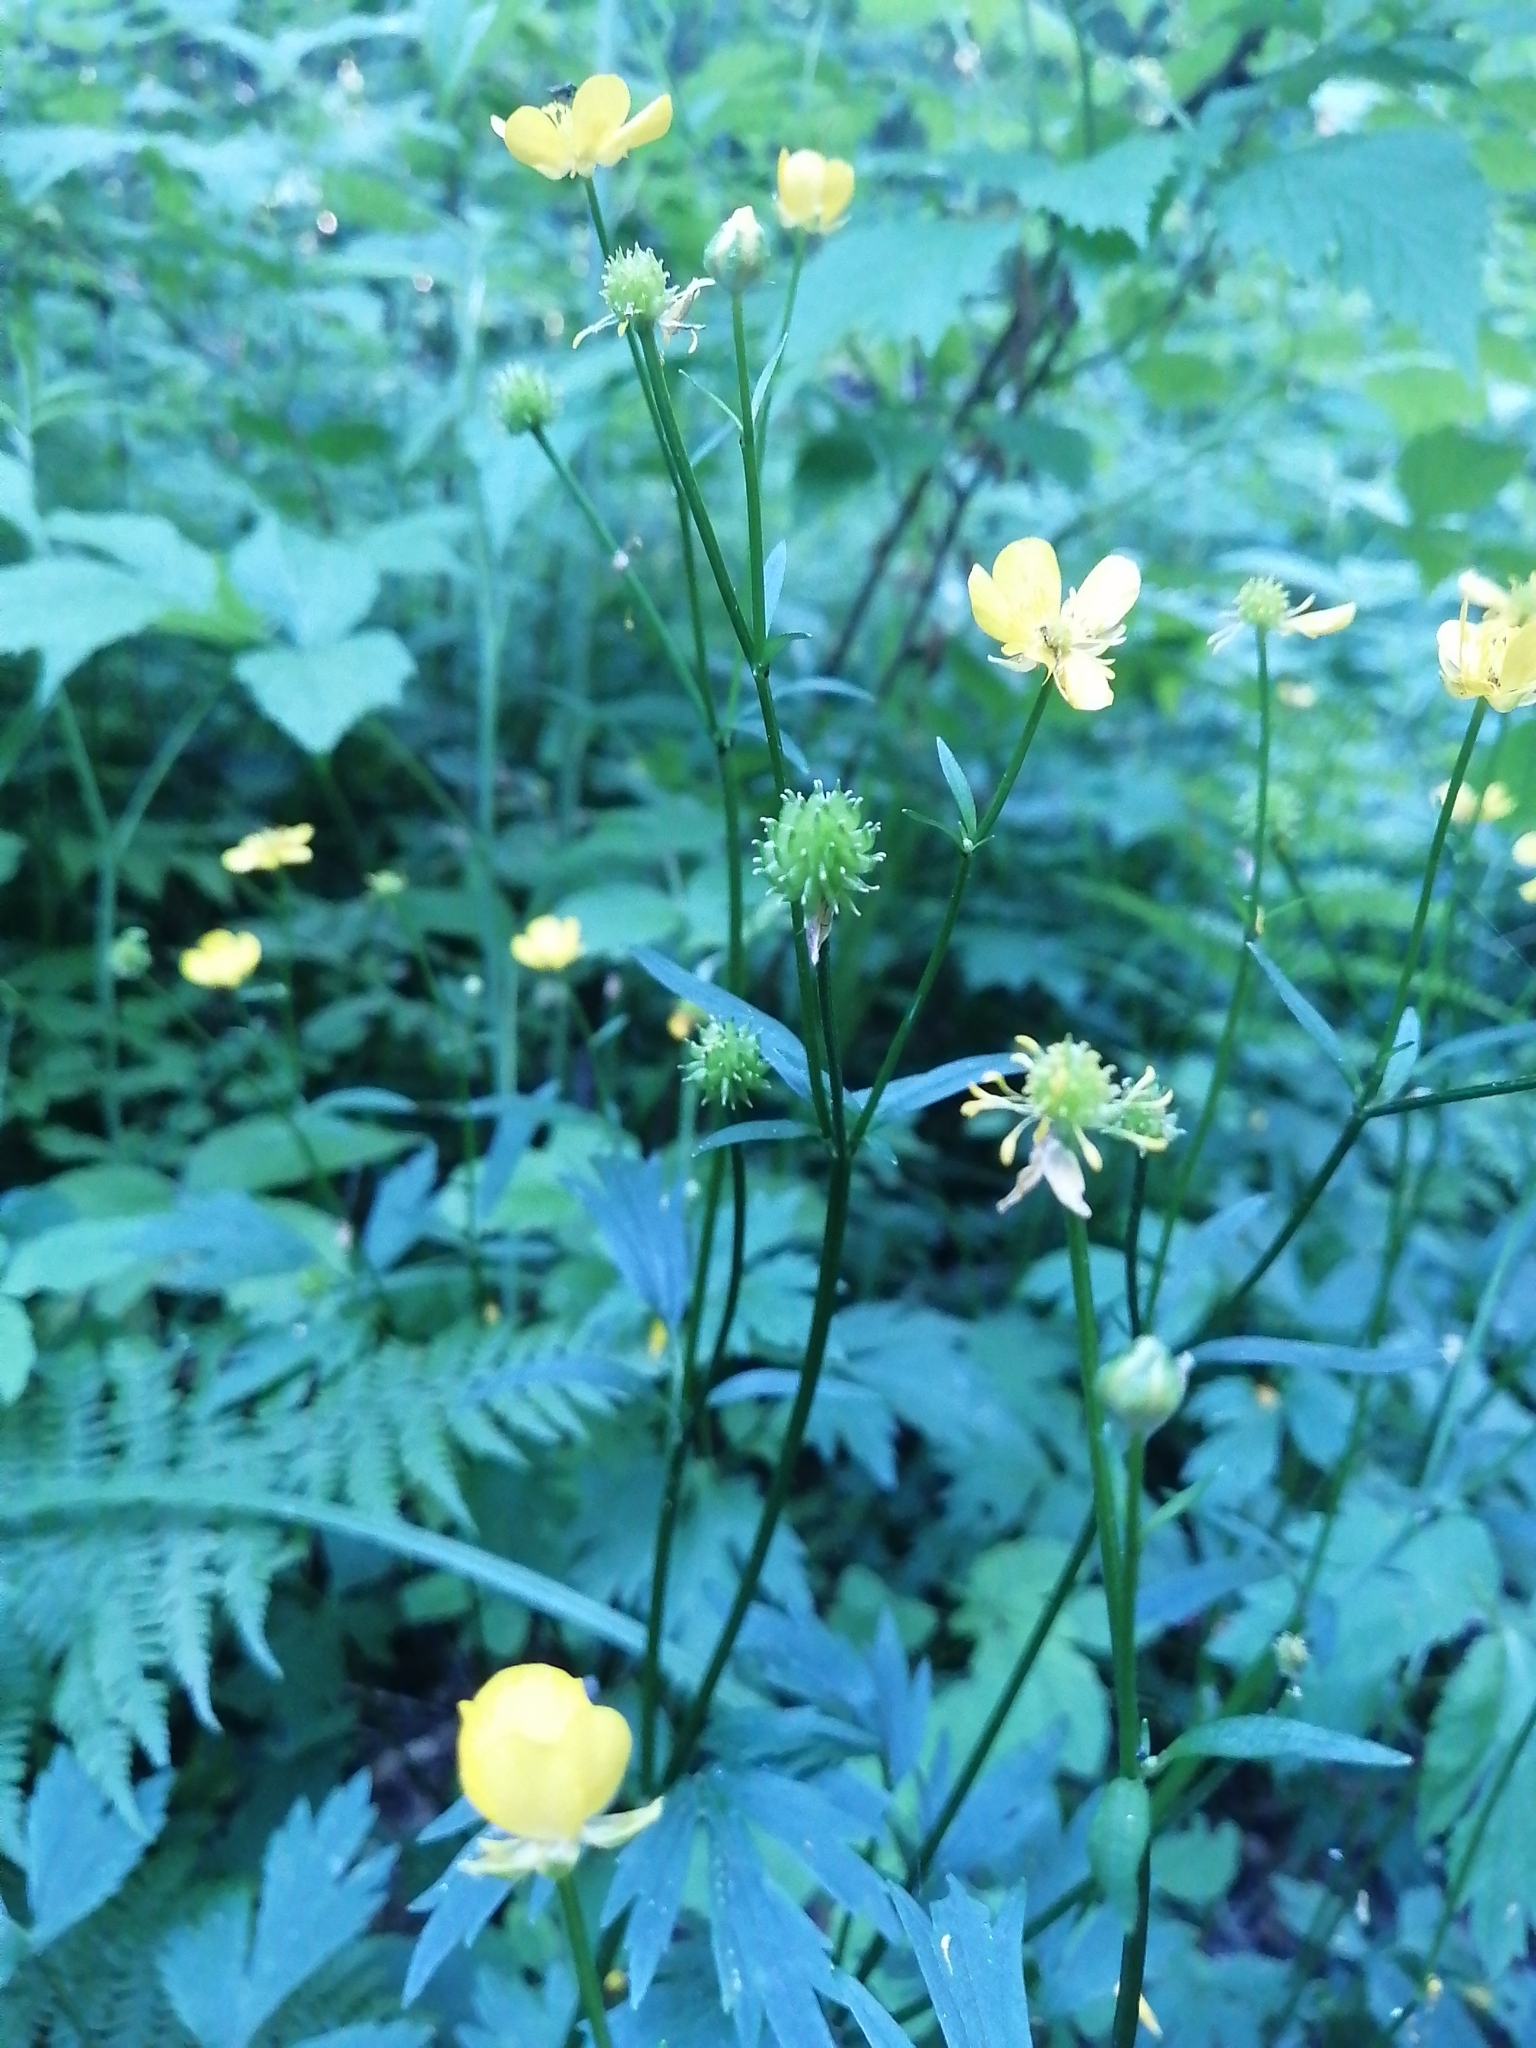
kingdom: Plantae
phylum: Tracheophyta
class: Magnoliopsida
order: Ranunculales
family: Ranunculaceae
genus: Ranunculus
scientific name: Ranunculus repens
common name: Creeping buttercup
